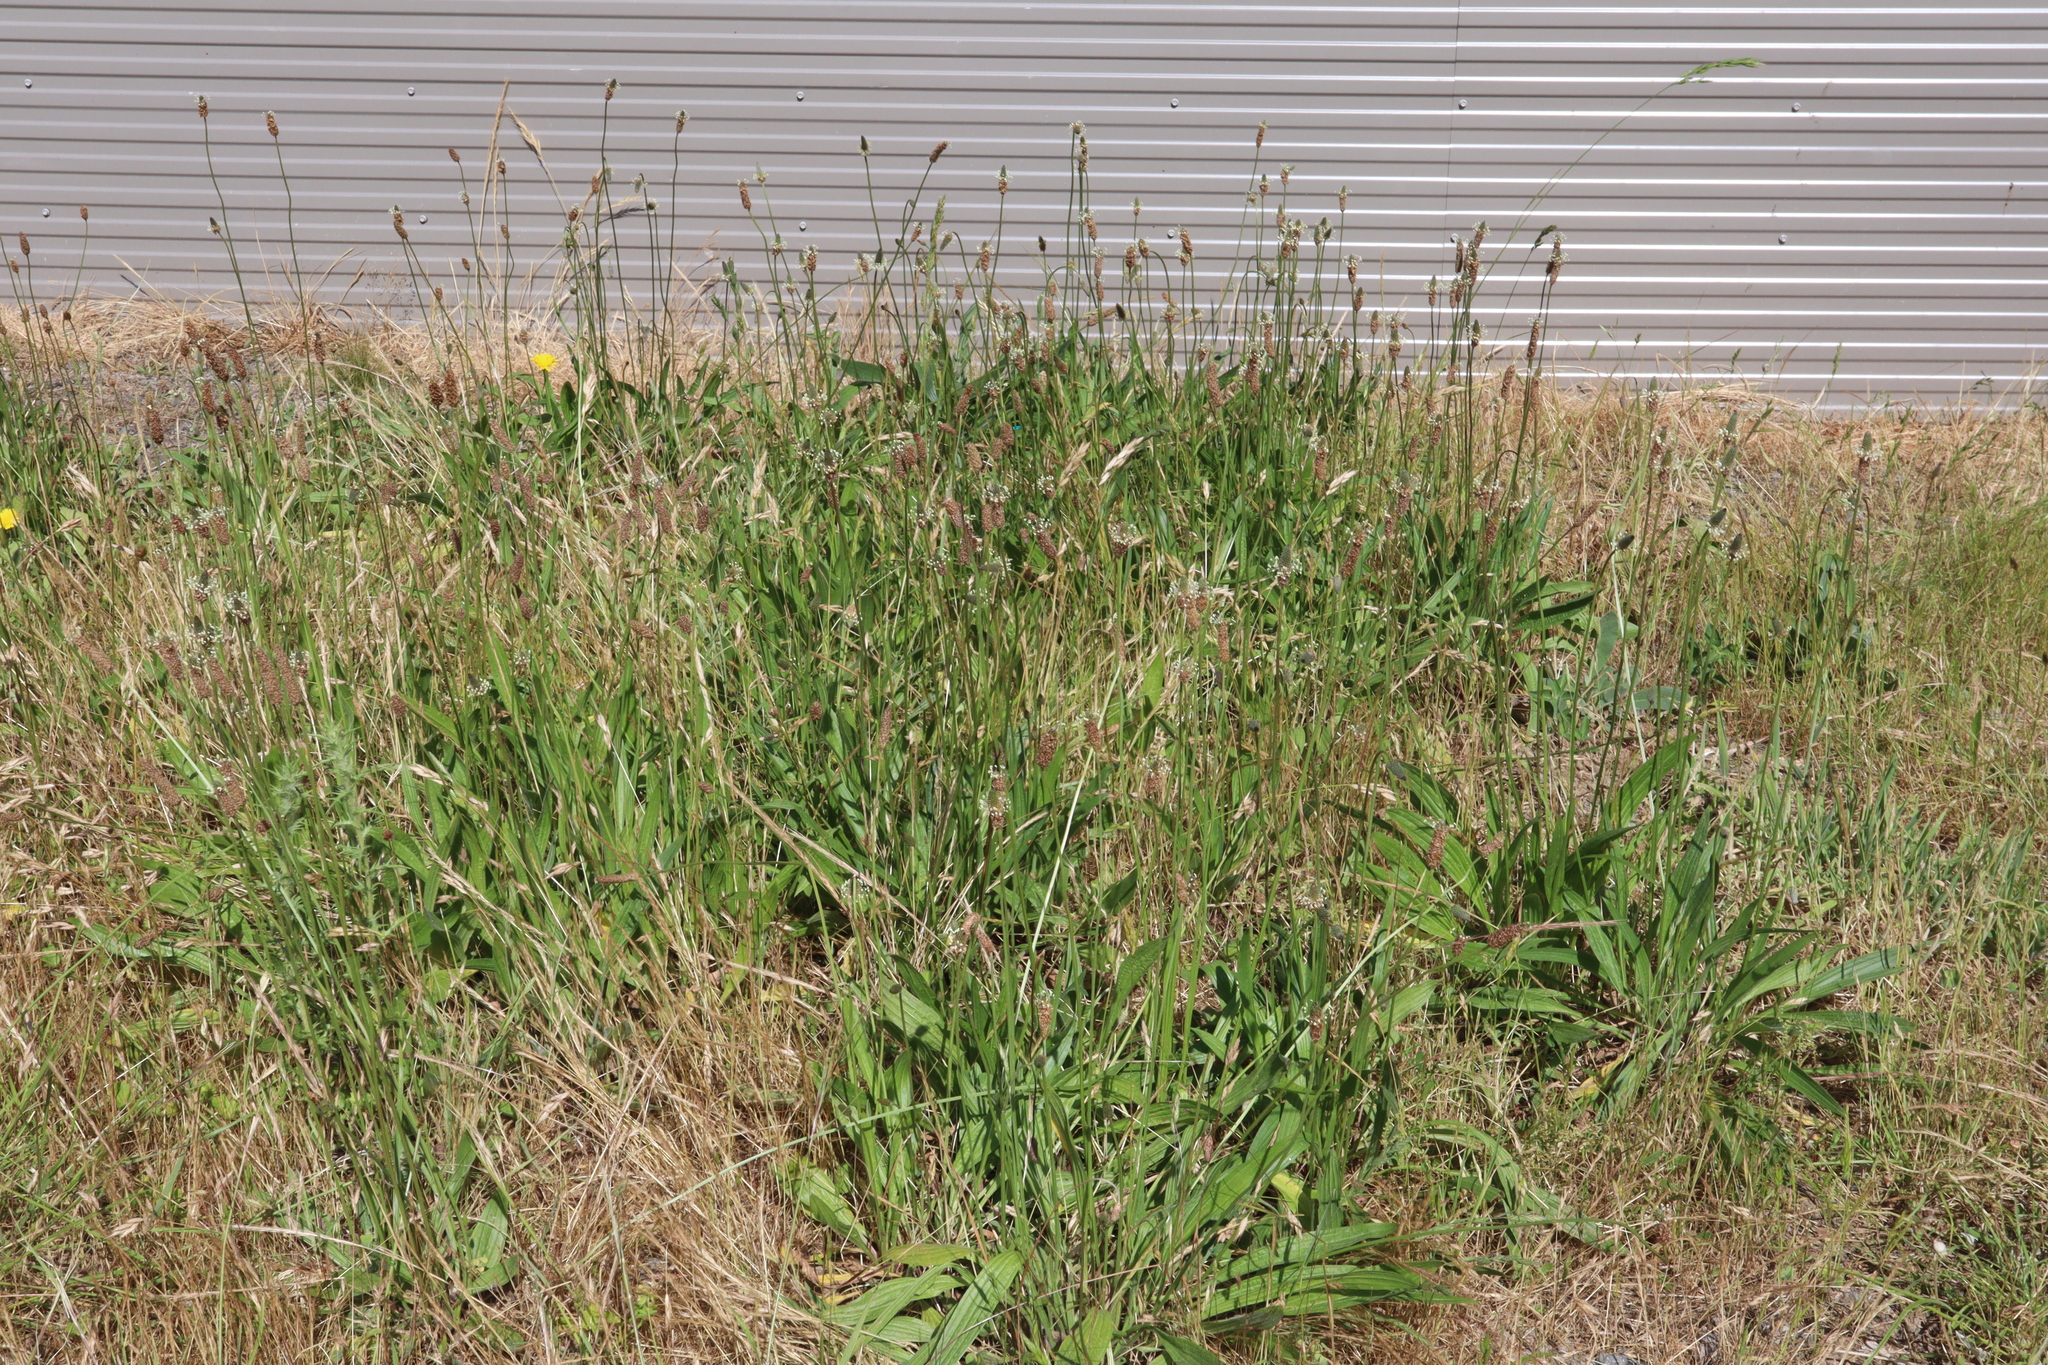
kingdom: Plantae
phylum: Tracheophyta
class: Magnoliopsida
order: Lamiales
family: Plantaginaceae
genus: Plantago
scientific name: Plantago lanceolata
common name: Ribwort plantain
